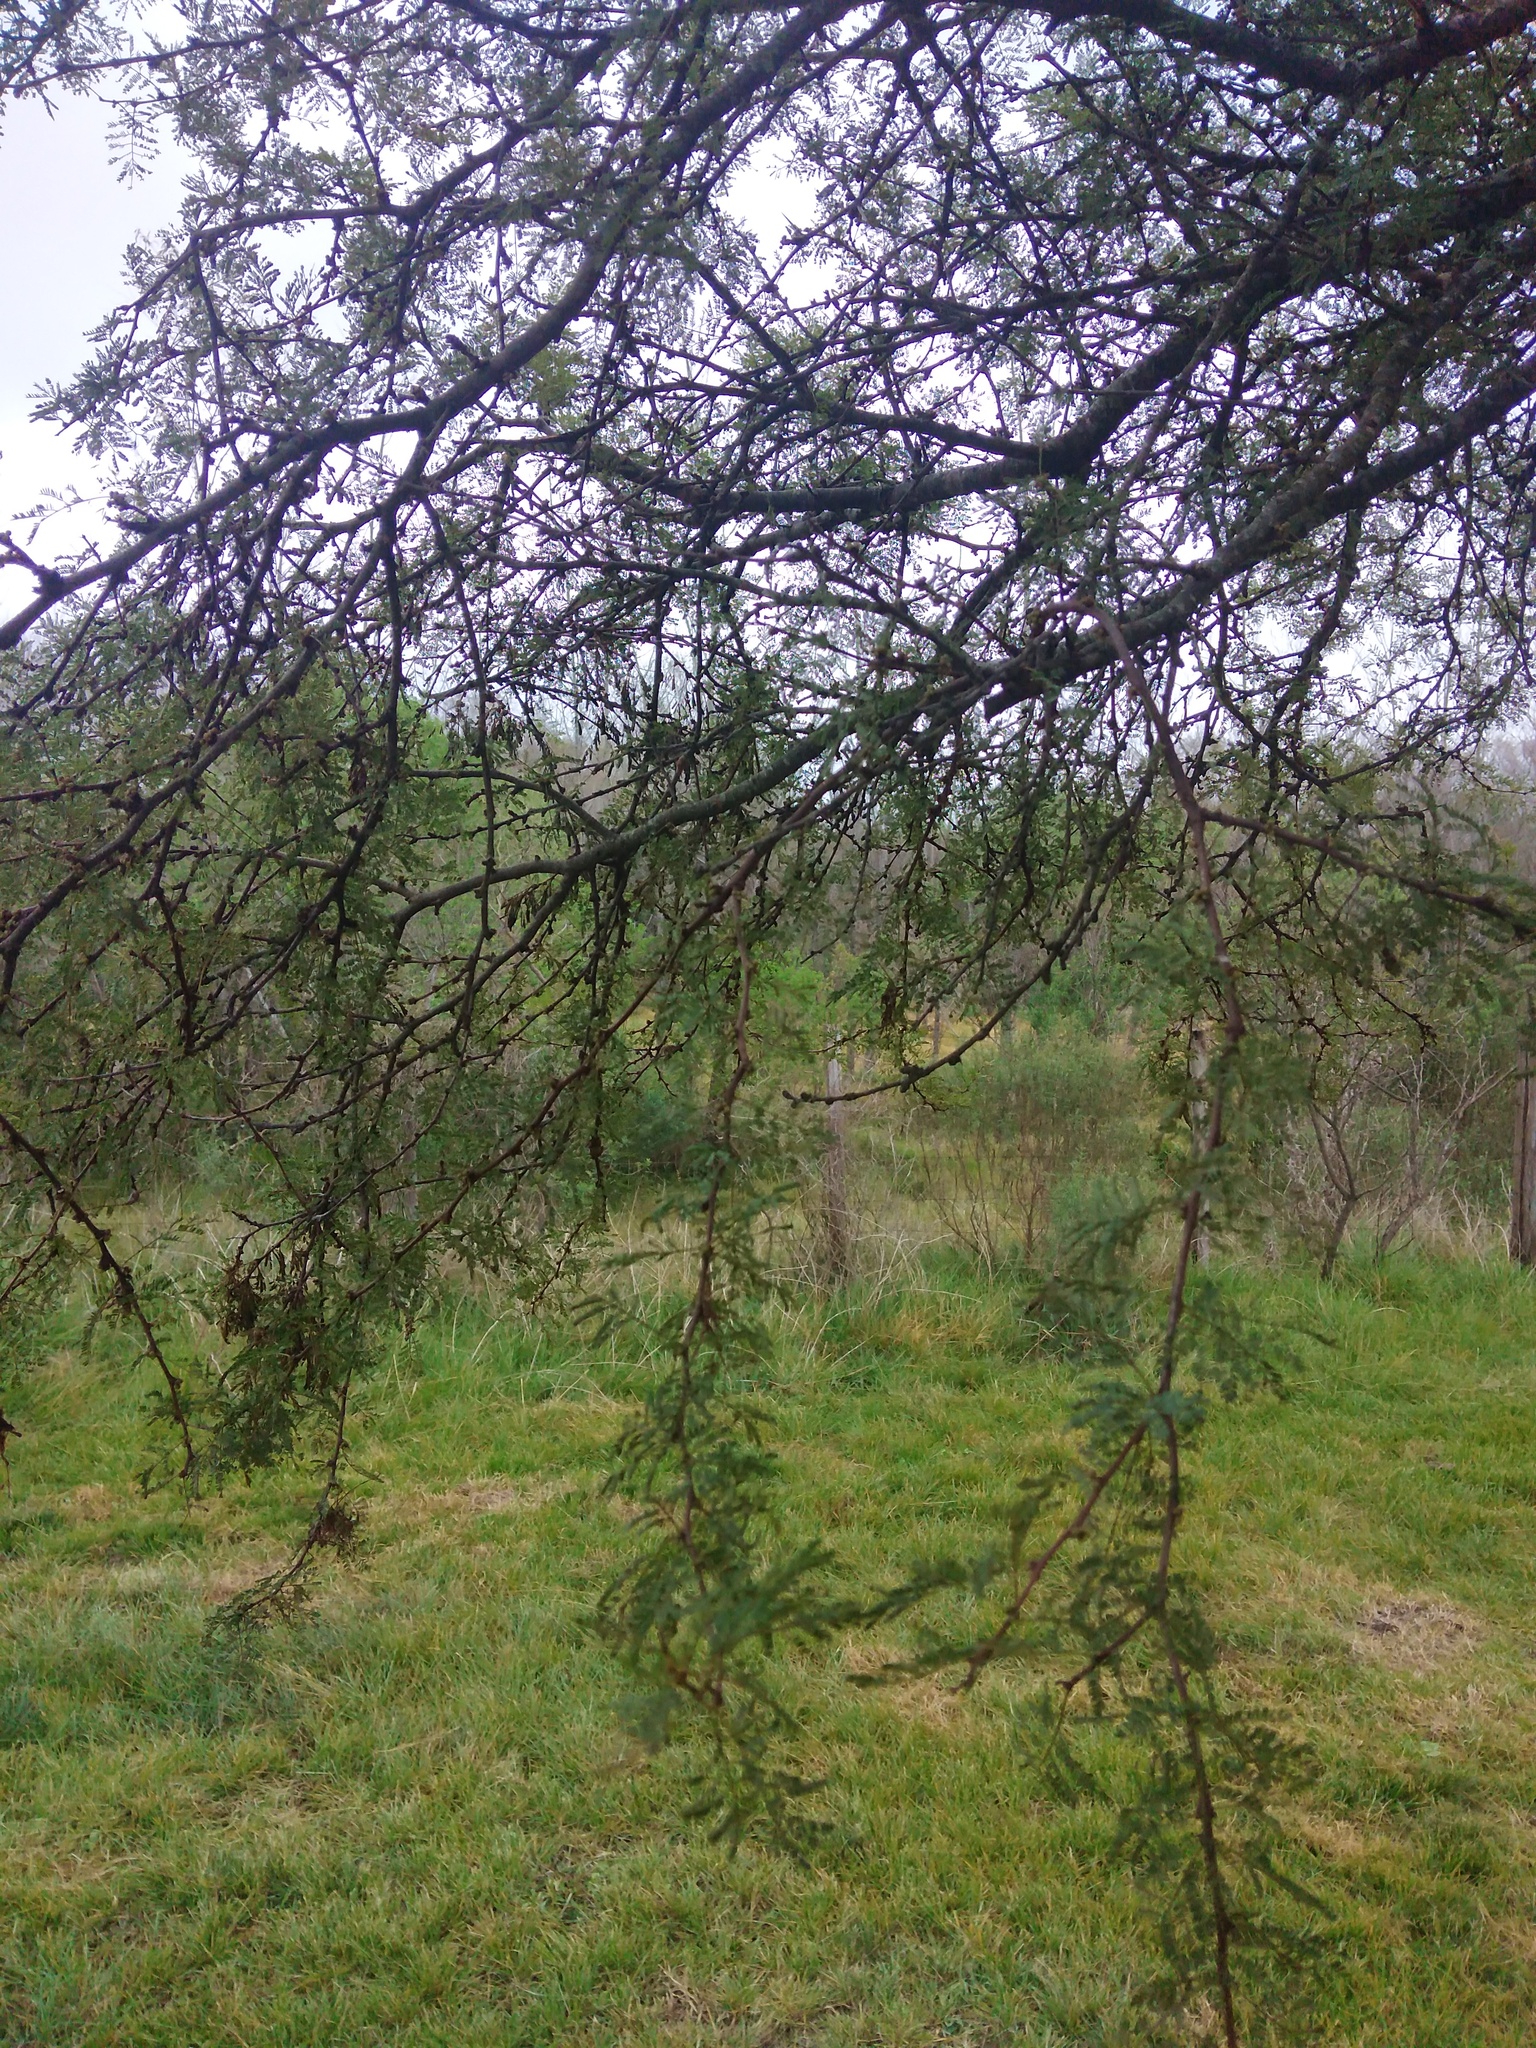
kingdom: Plantae
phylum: Tracheophyta
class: Magnoliopsida
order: Fabales
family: Fabaceae
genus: Vachellia
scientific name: Vachellia caven
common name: Roman cassie
